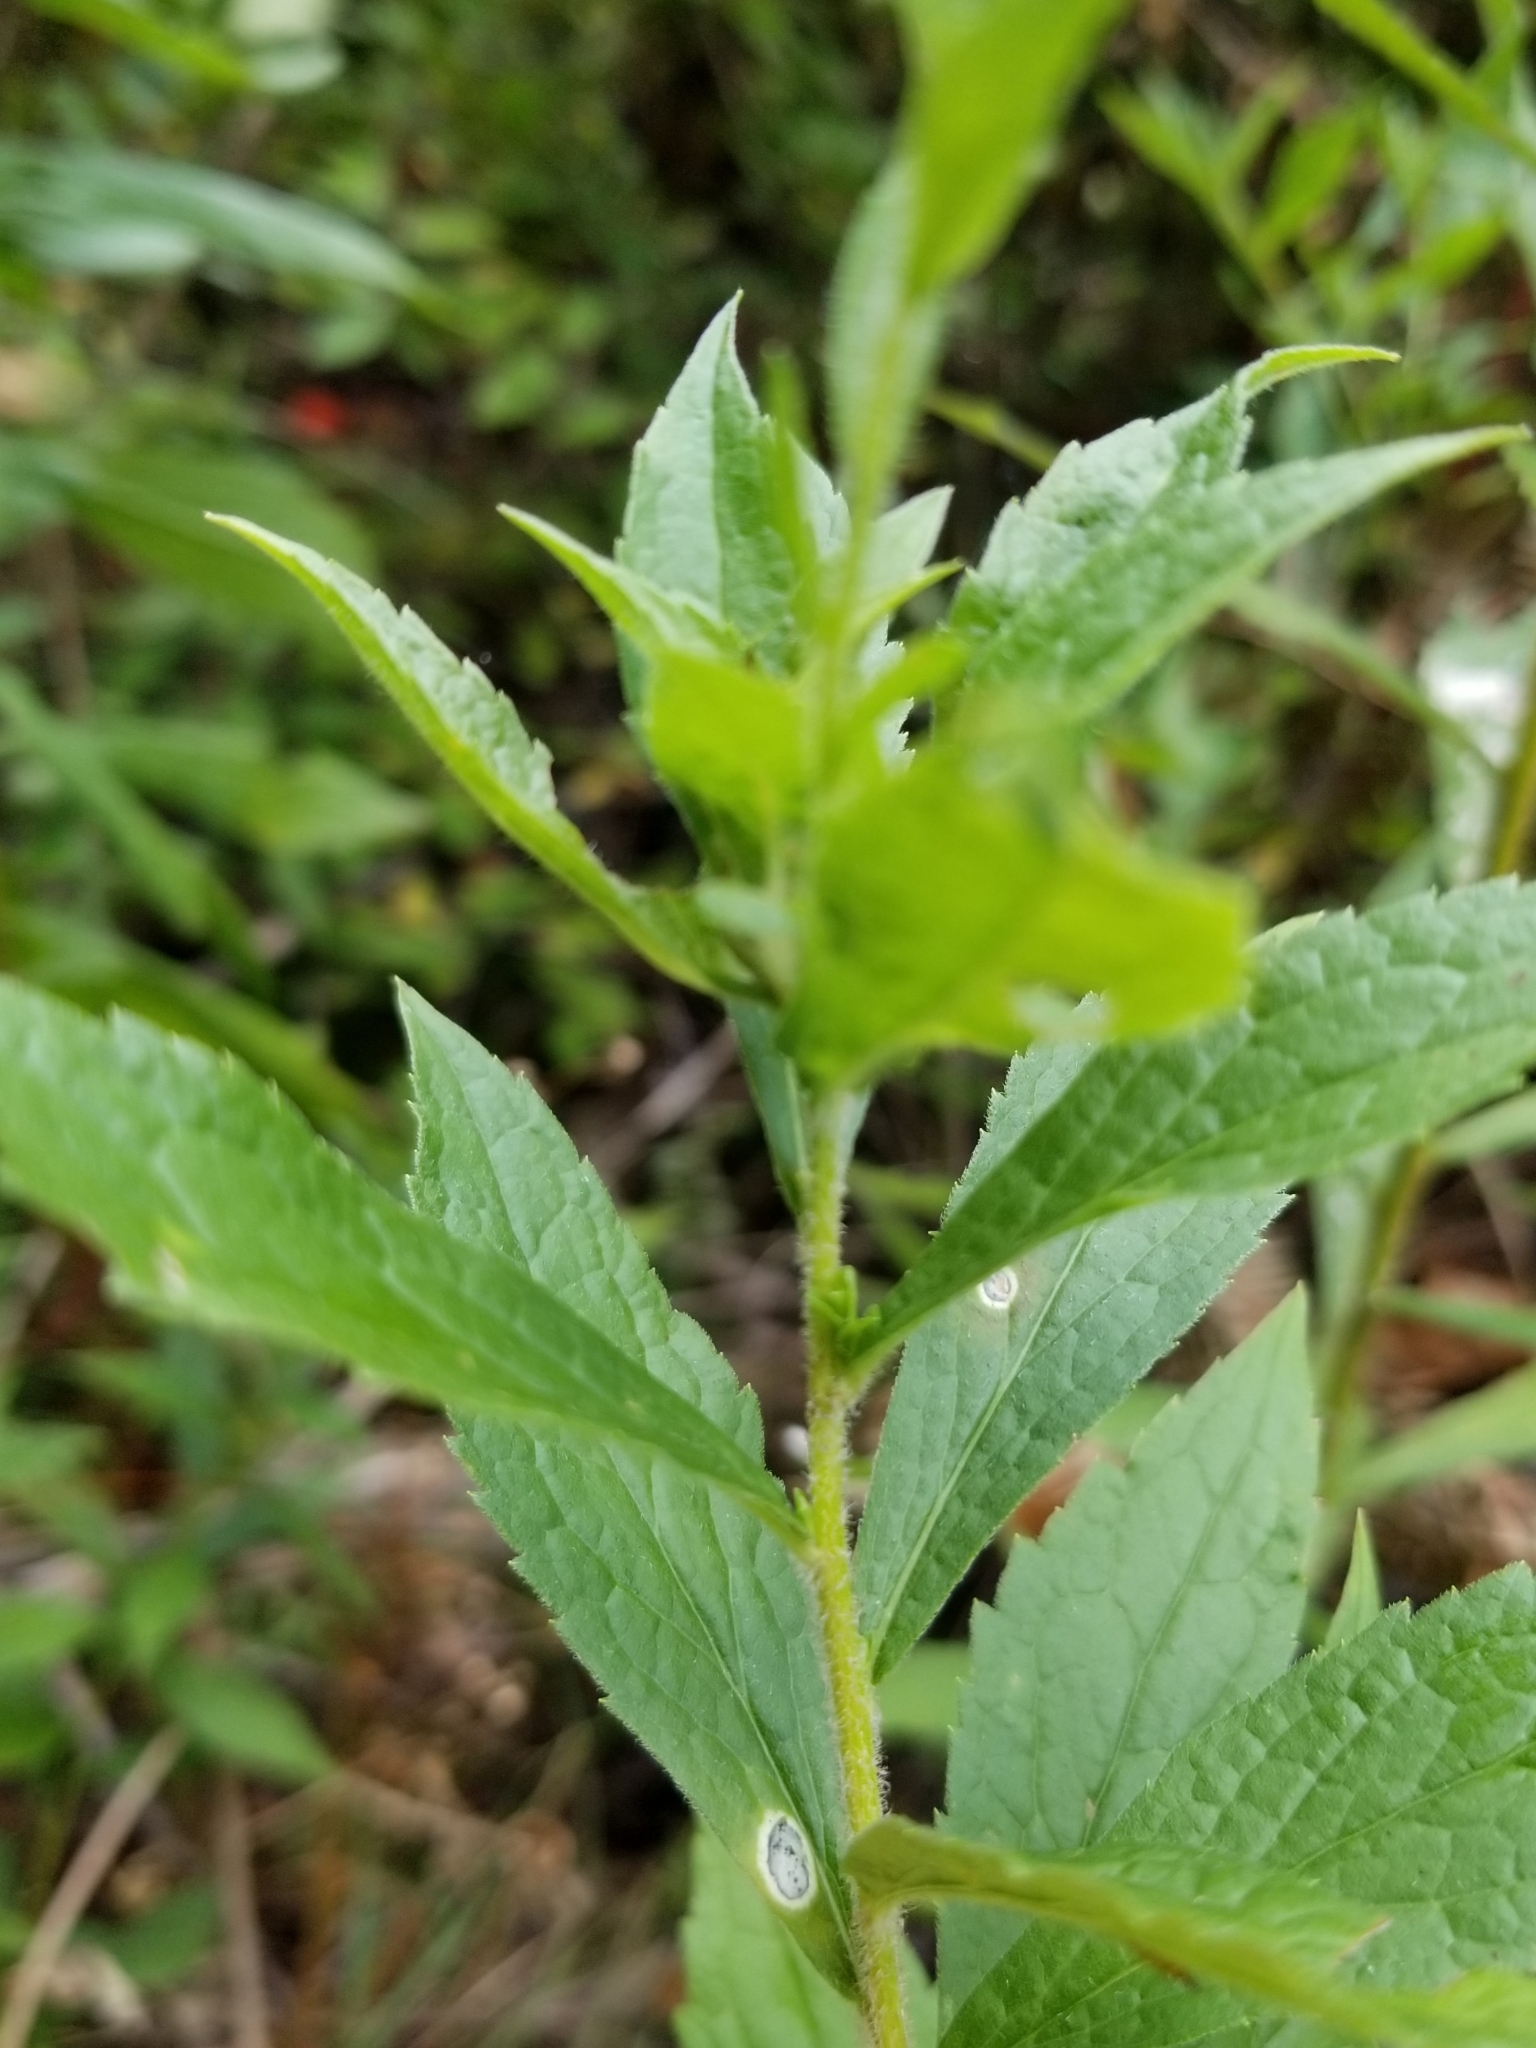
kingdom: Animalia
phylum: Arthropoda
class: Insecta
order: Diptera
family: Cecidomyiidae
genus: Dasineura
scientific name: Dasineura folliculi
